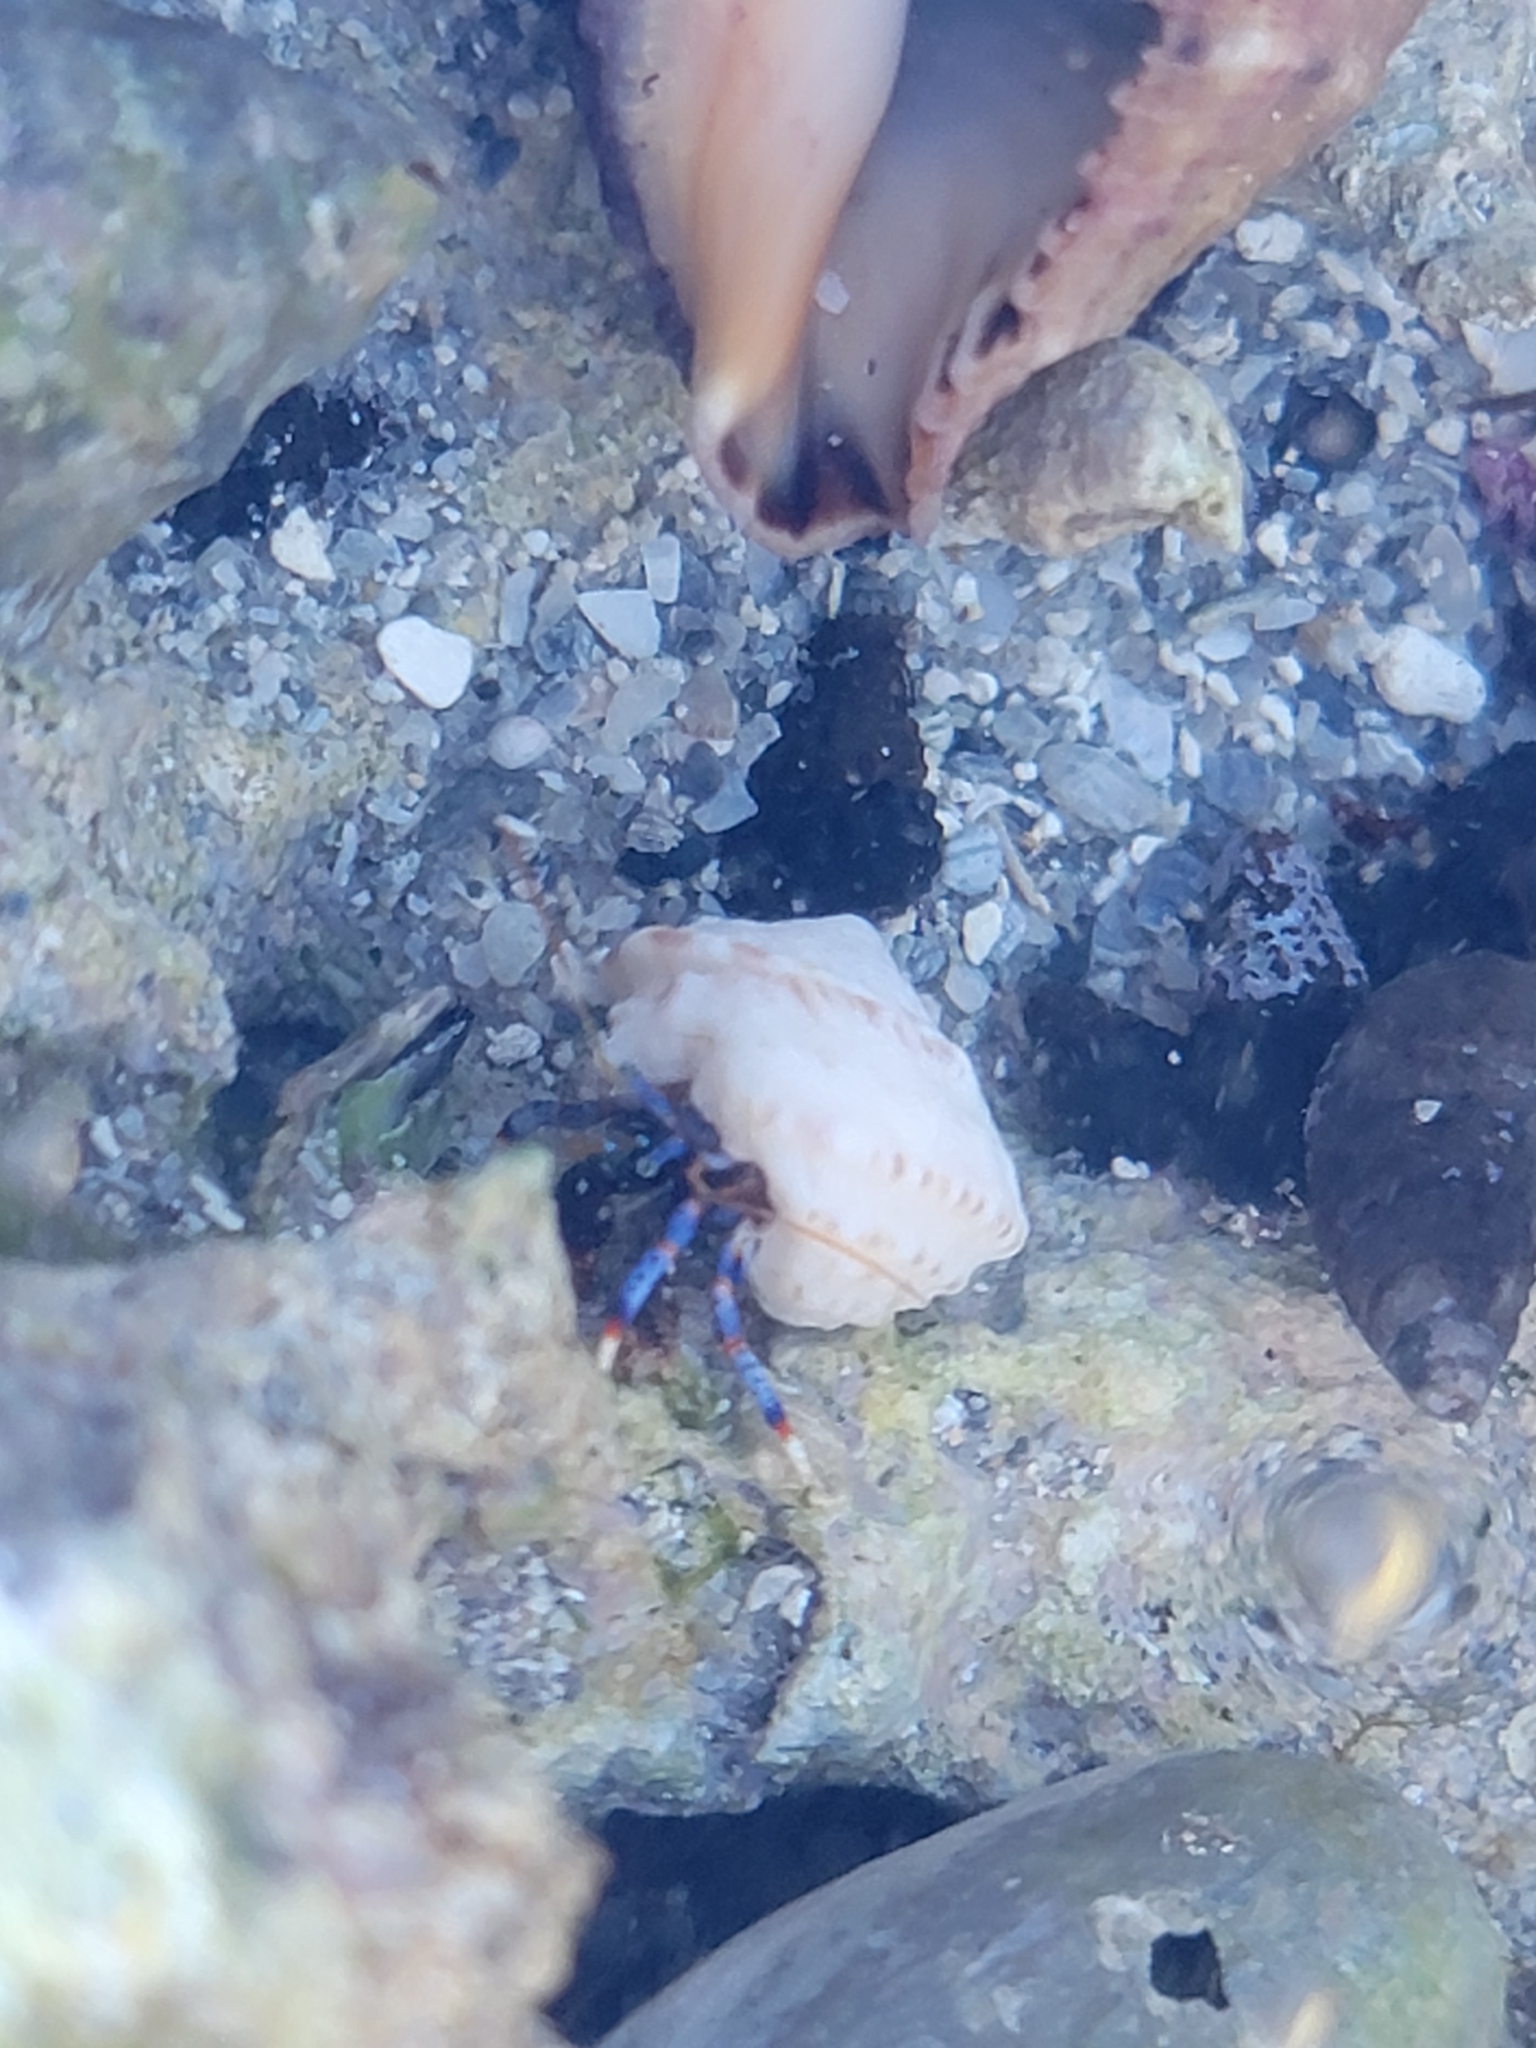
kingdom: Animalia
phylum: Arthropoda
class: Malacostraca
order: Decapoda
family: Diogenidae
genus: Clibanarius
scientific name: Clibanarius tricolor
